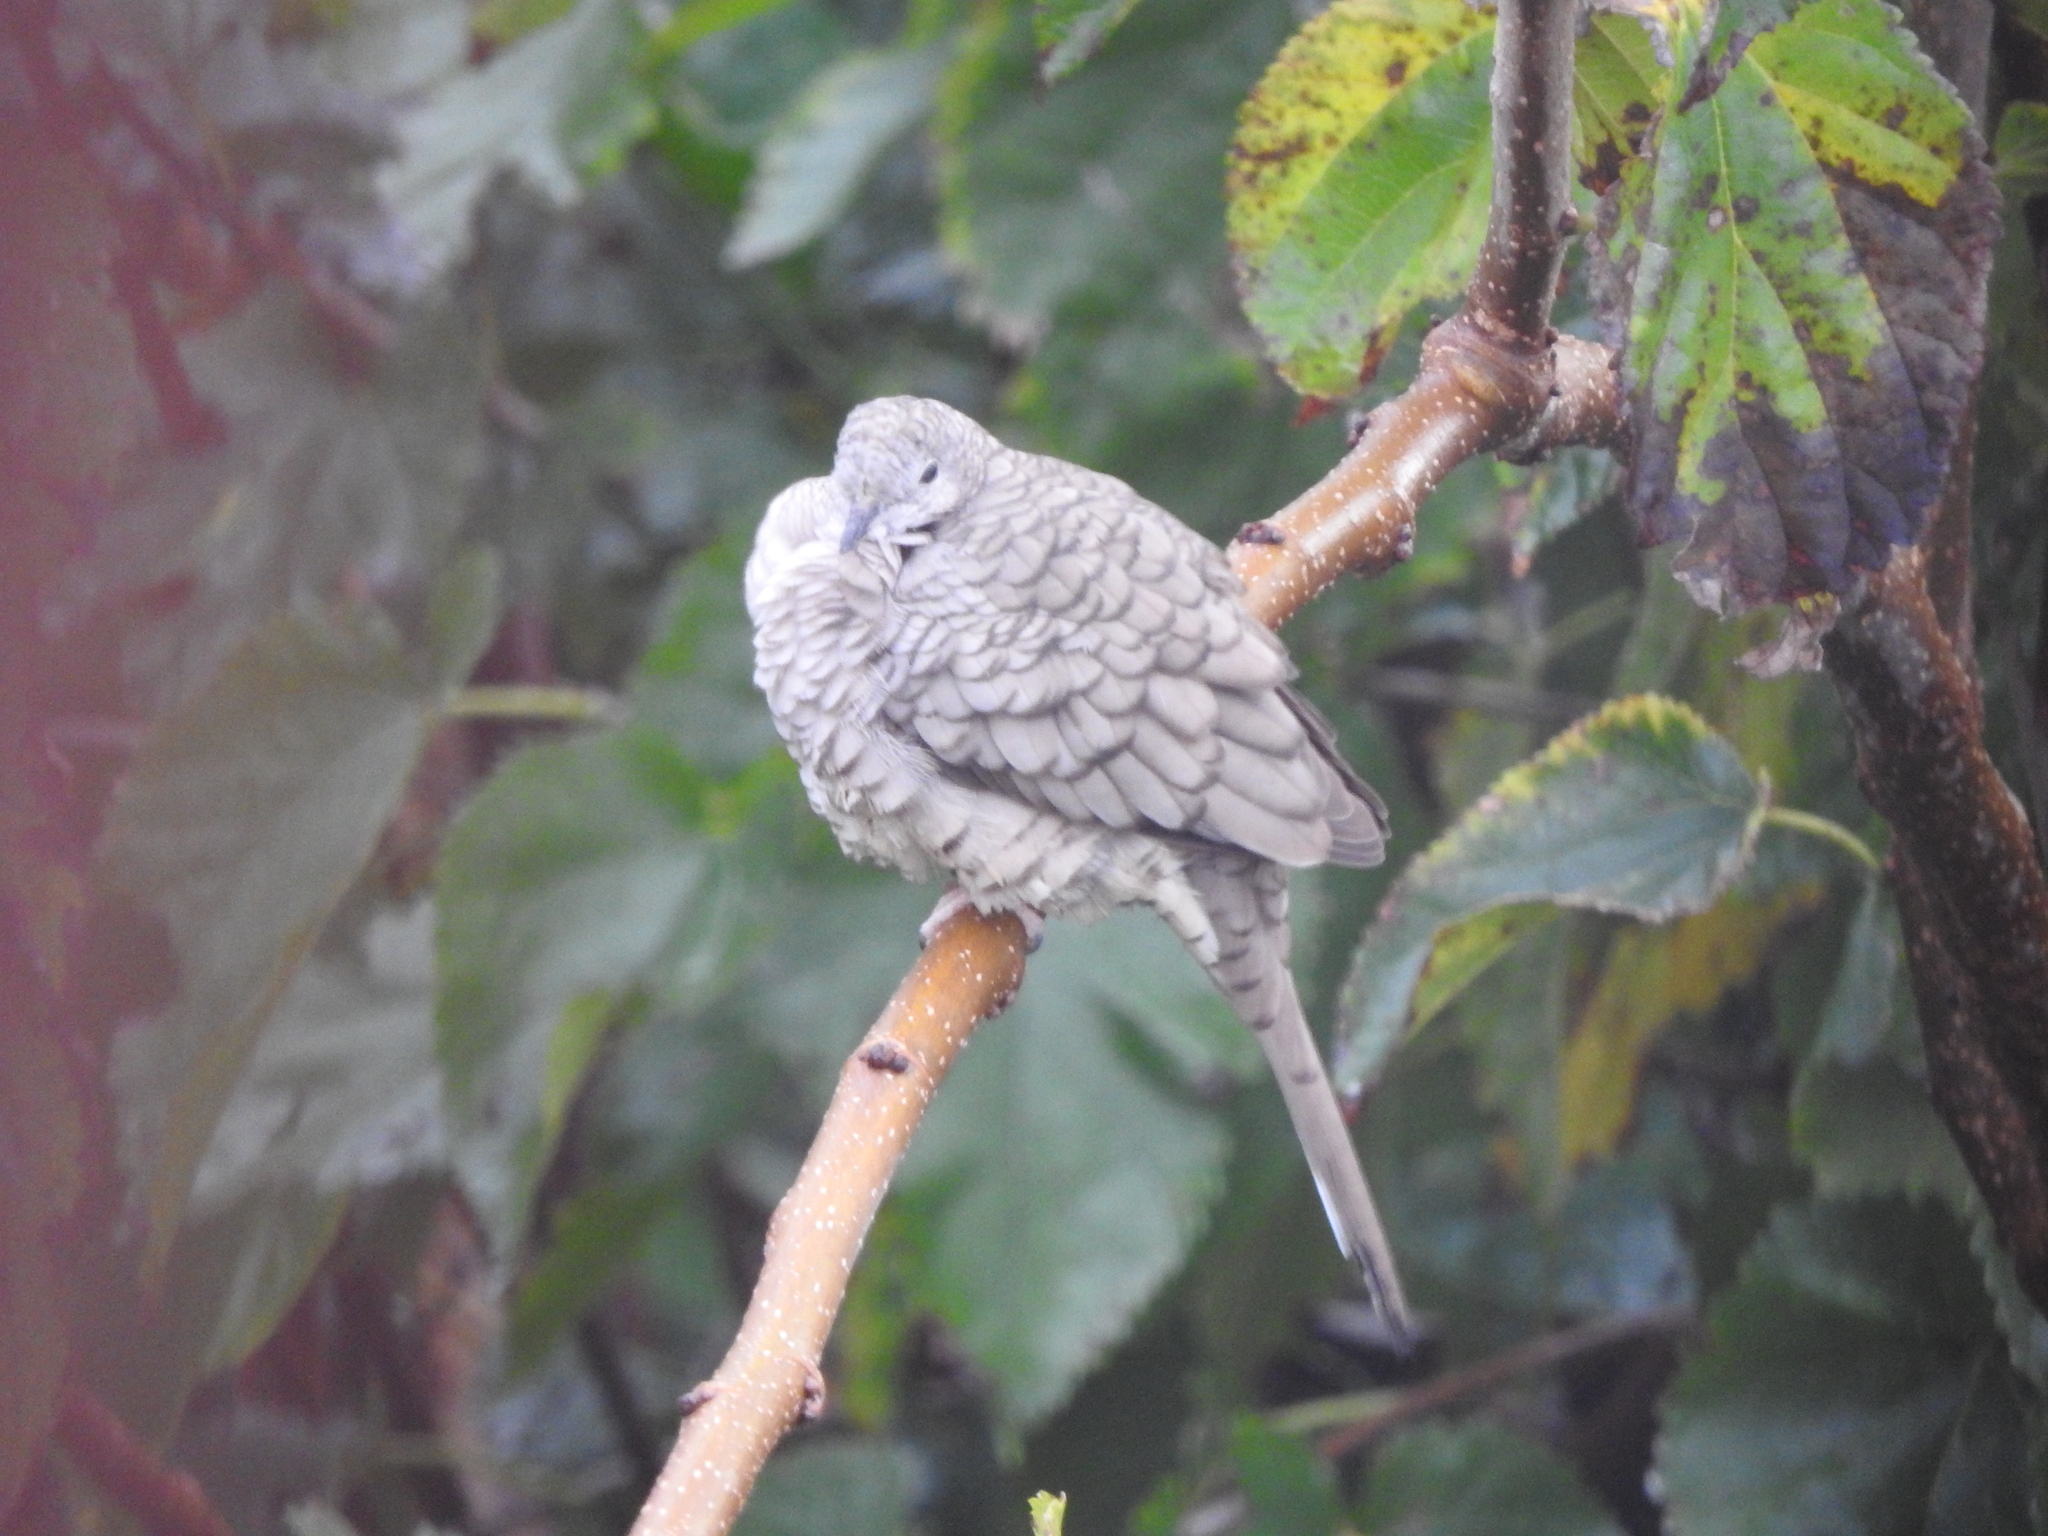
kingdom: Animalia
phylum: Chordata
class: Aves
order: Columbiformes
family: Columbidae
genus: Columbina
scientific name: Columbina inca
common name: Inca dove
